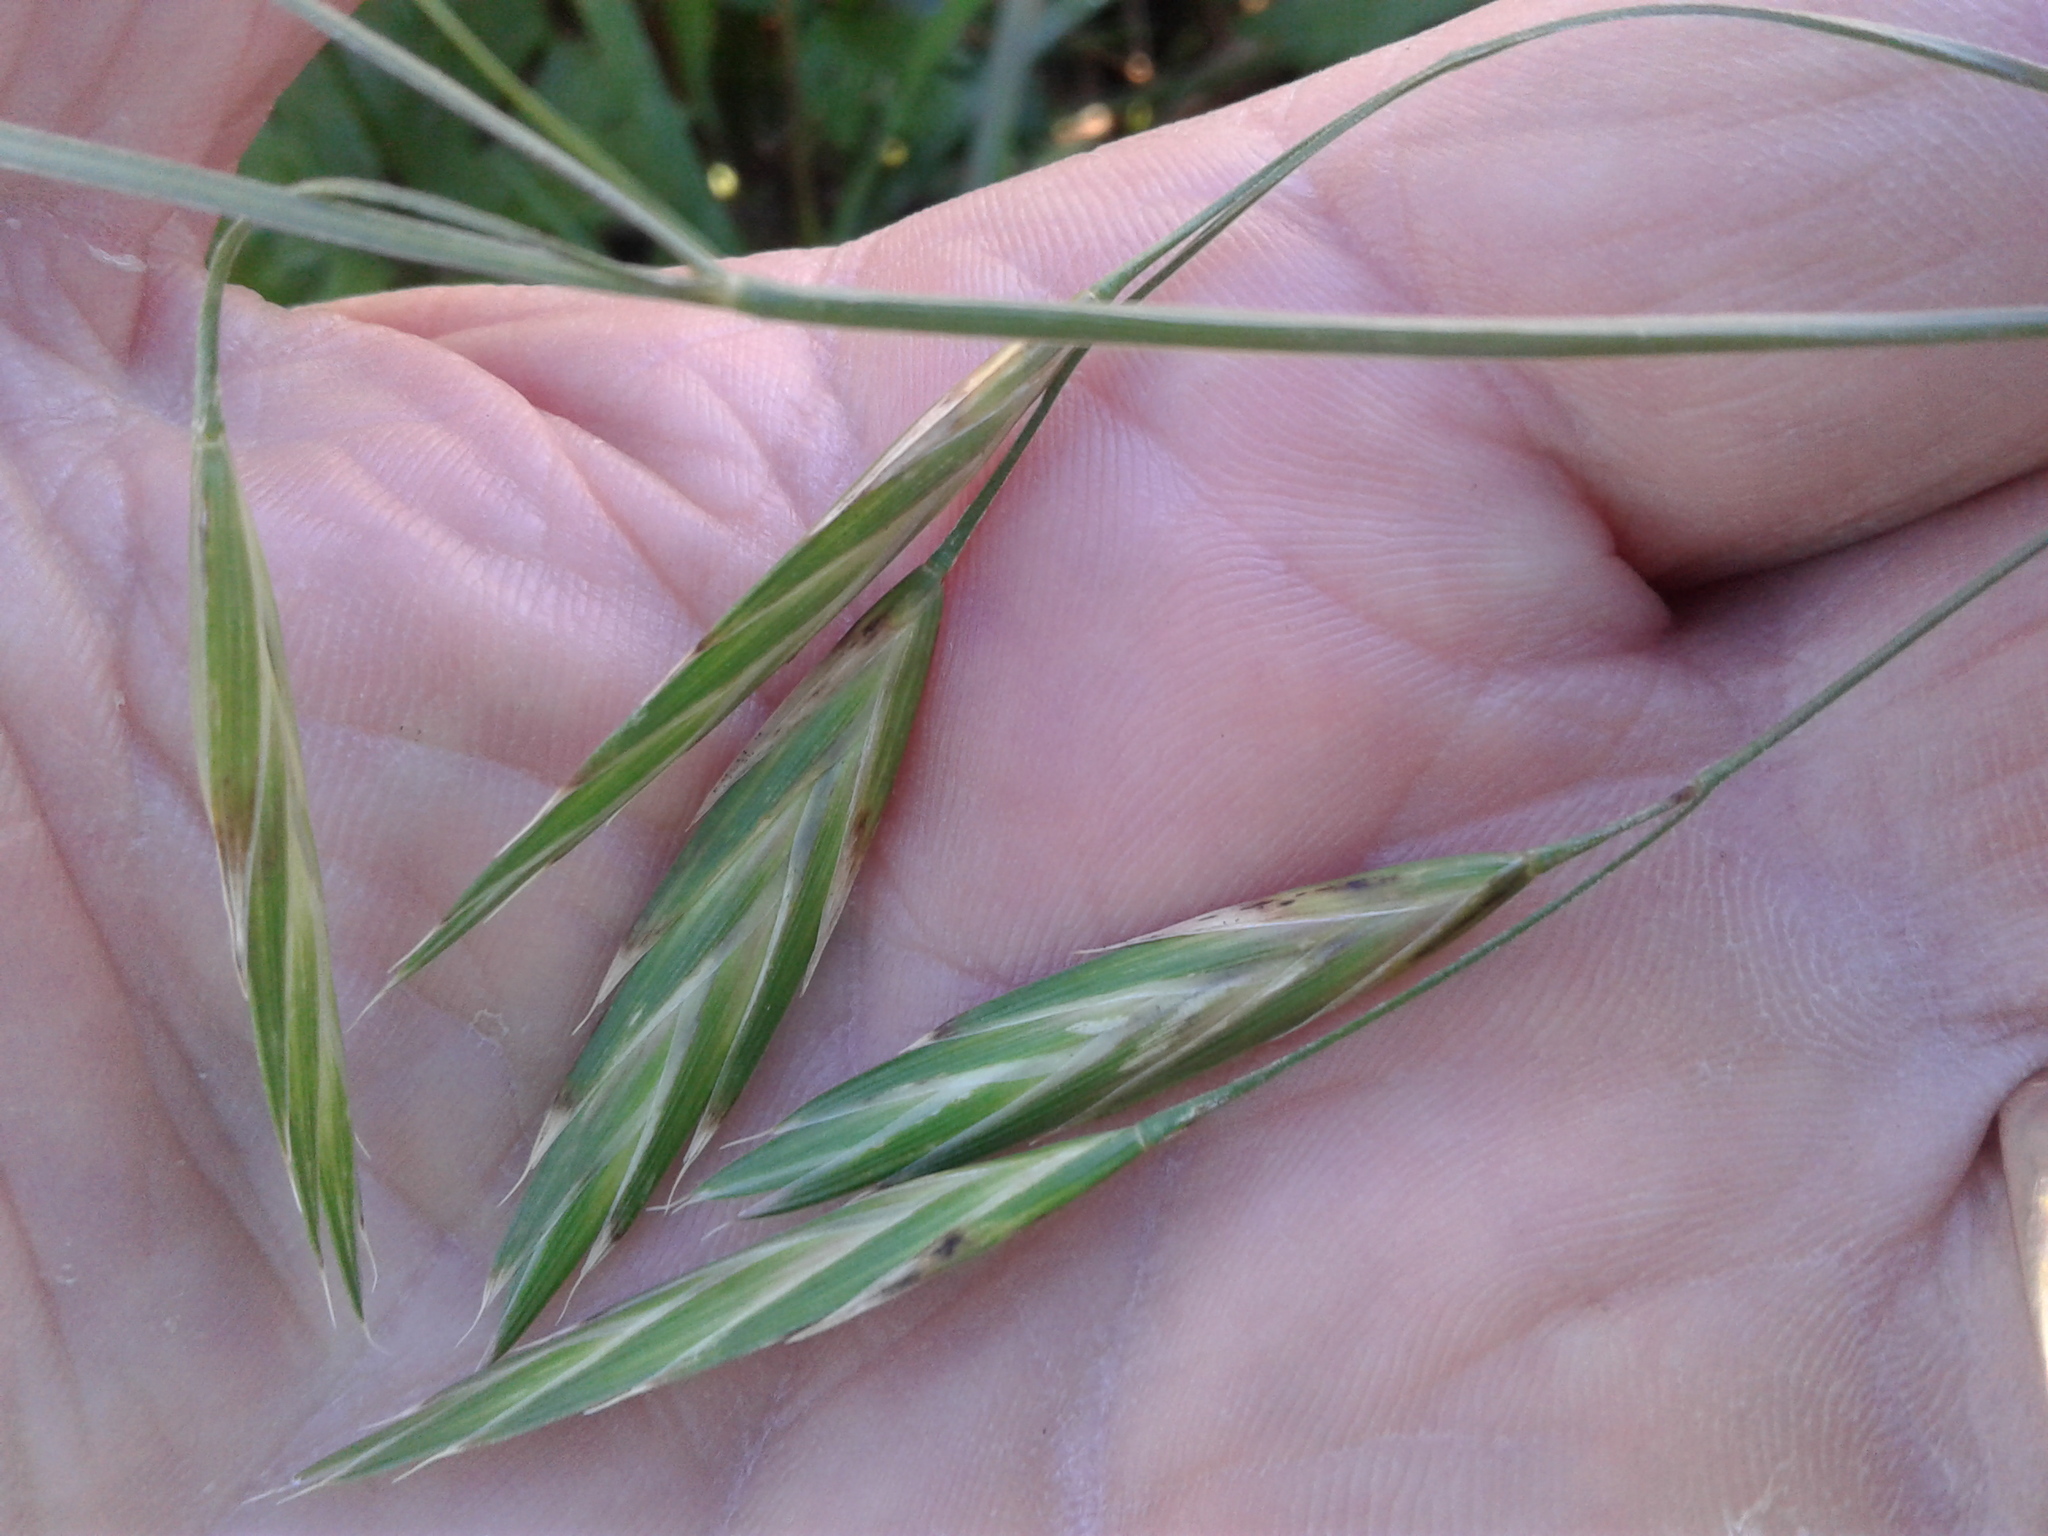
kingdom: Plantae
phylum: Tracheophyta
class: Liliopsida
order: Poales
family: Poaceae
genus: Bromus
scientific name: Bromus catharticus
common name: Rescuegrass
